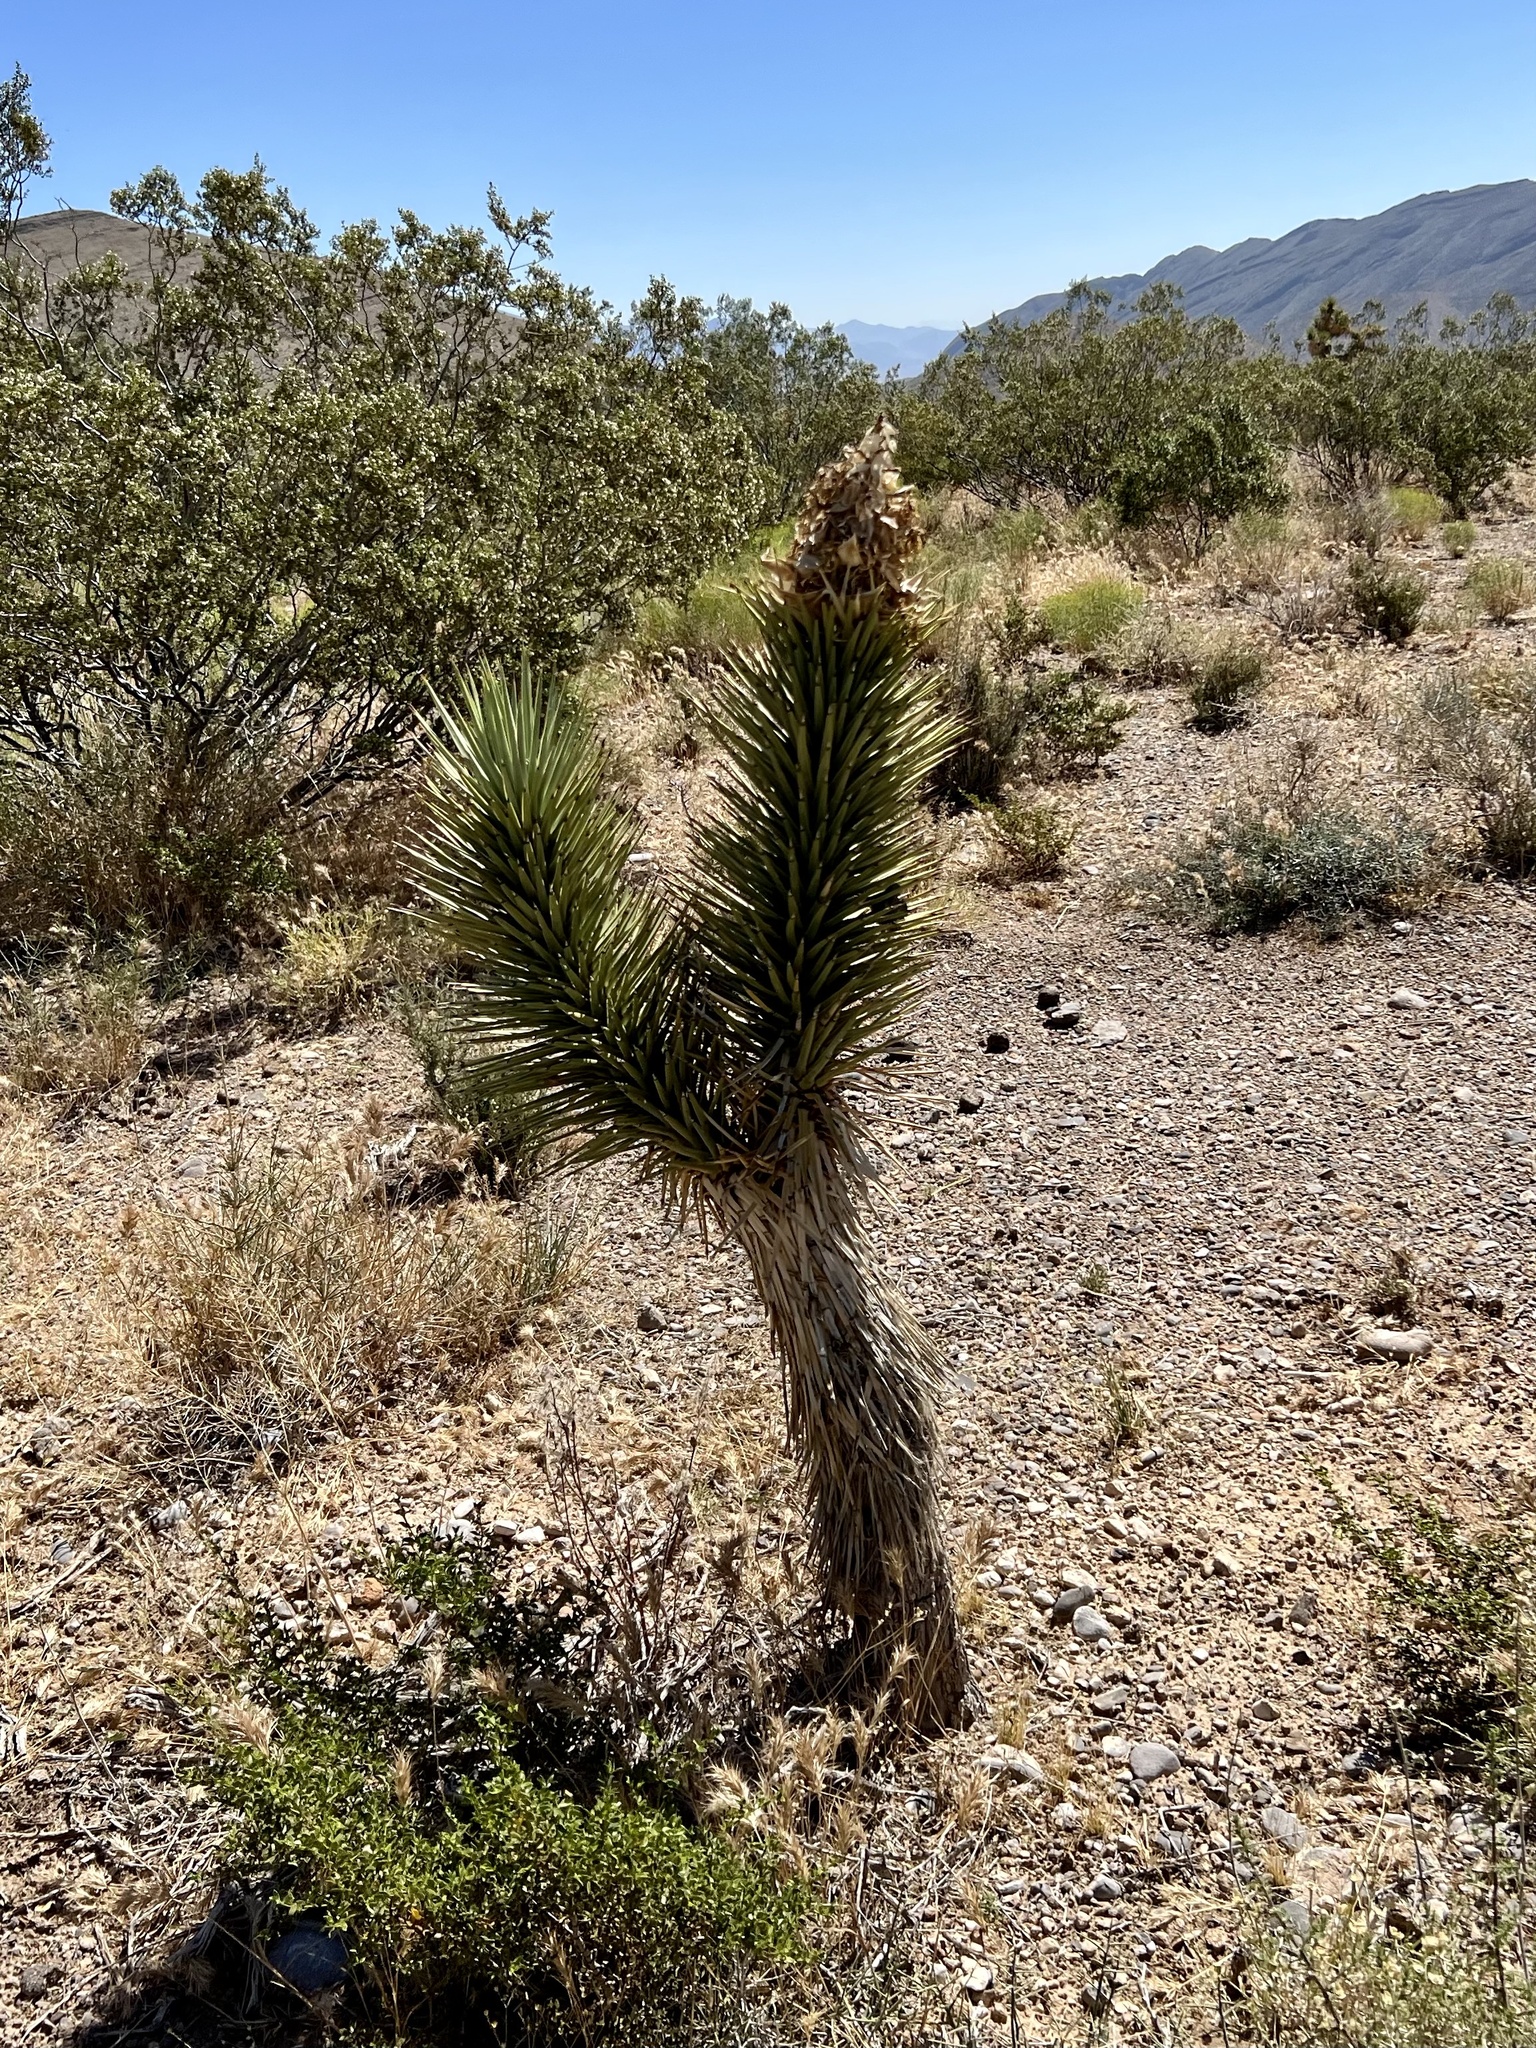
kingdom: Plantae
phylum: Tracheophyta
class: Liliopsida
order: Asparagales
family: Asparagaceae
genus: Yucca
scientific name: Yucca brevifolia
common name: Joshua tree
